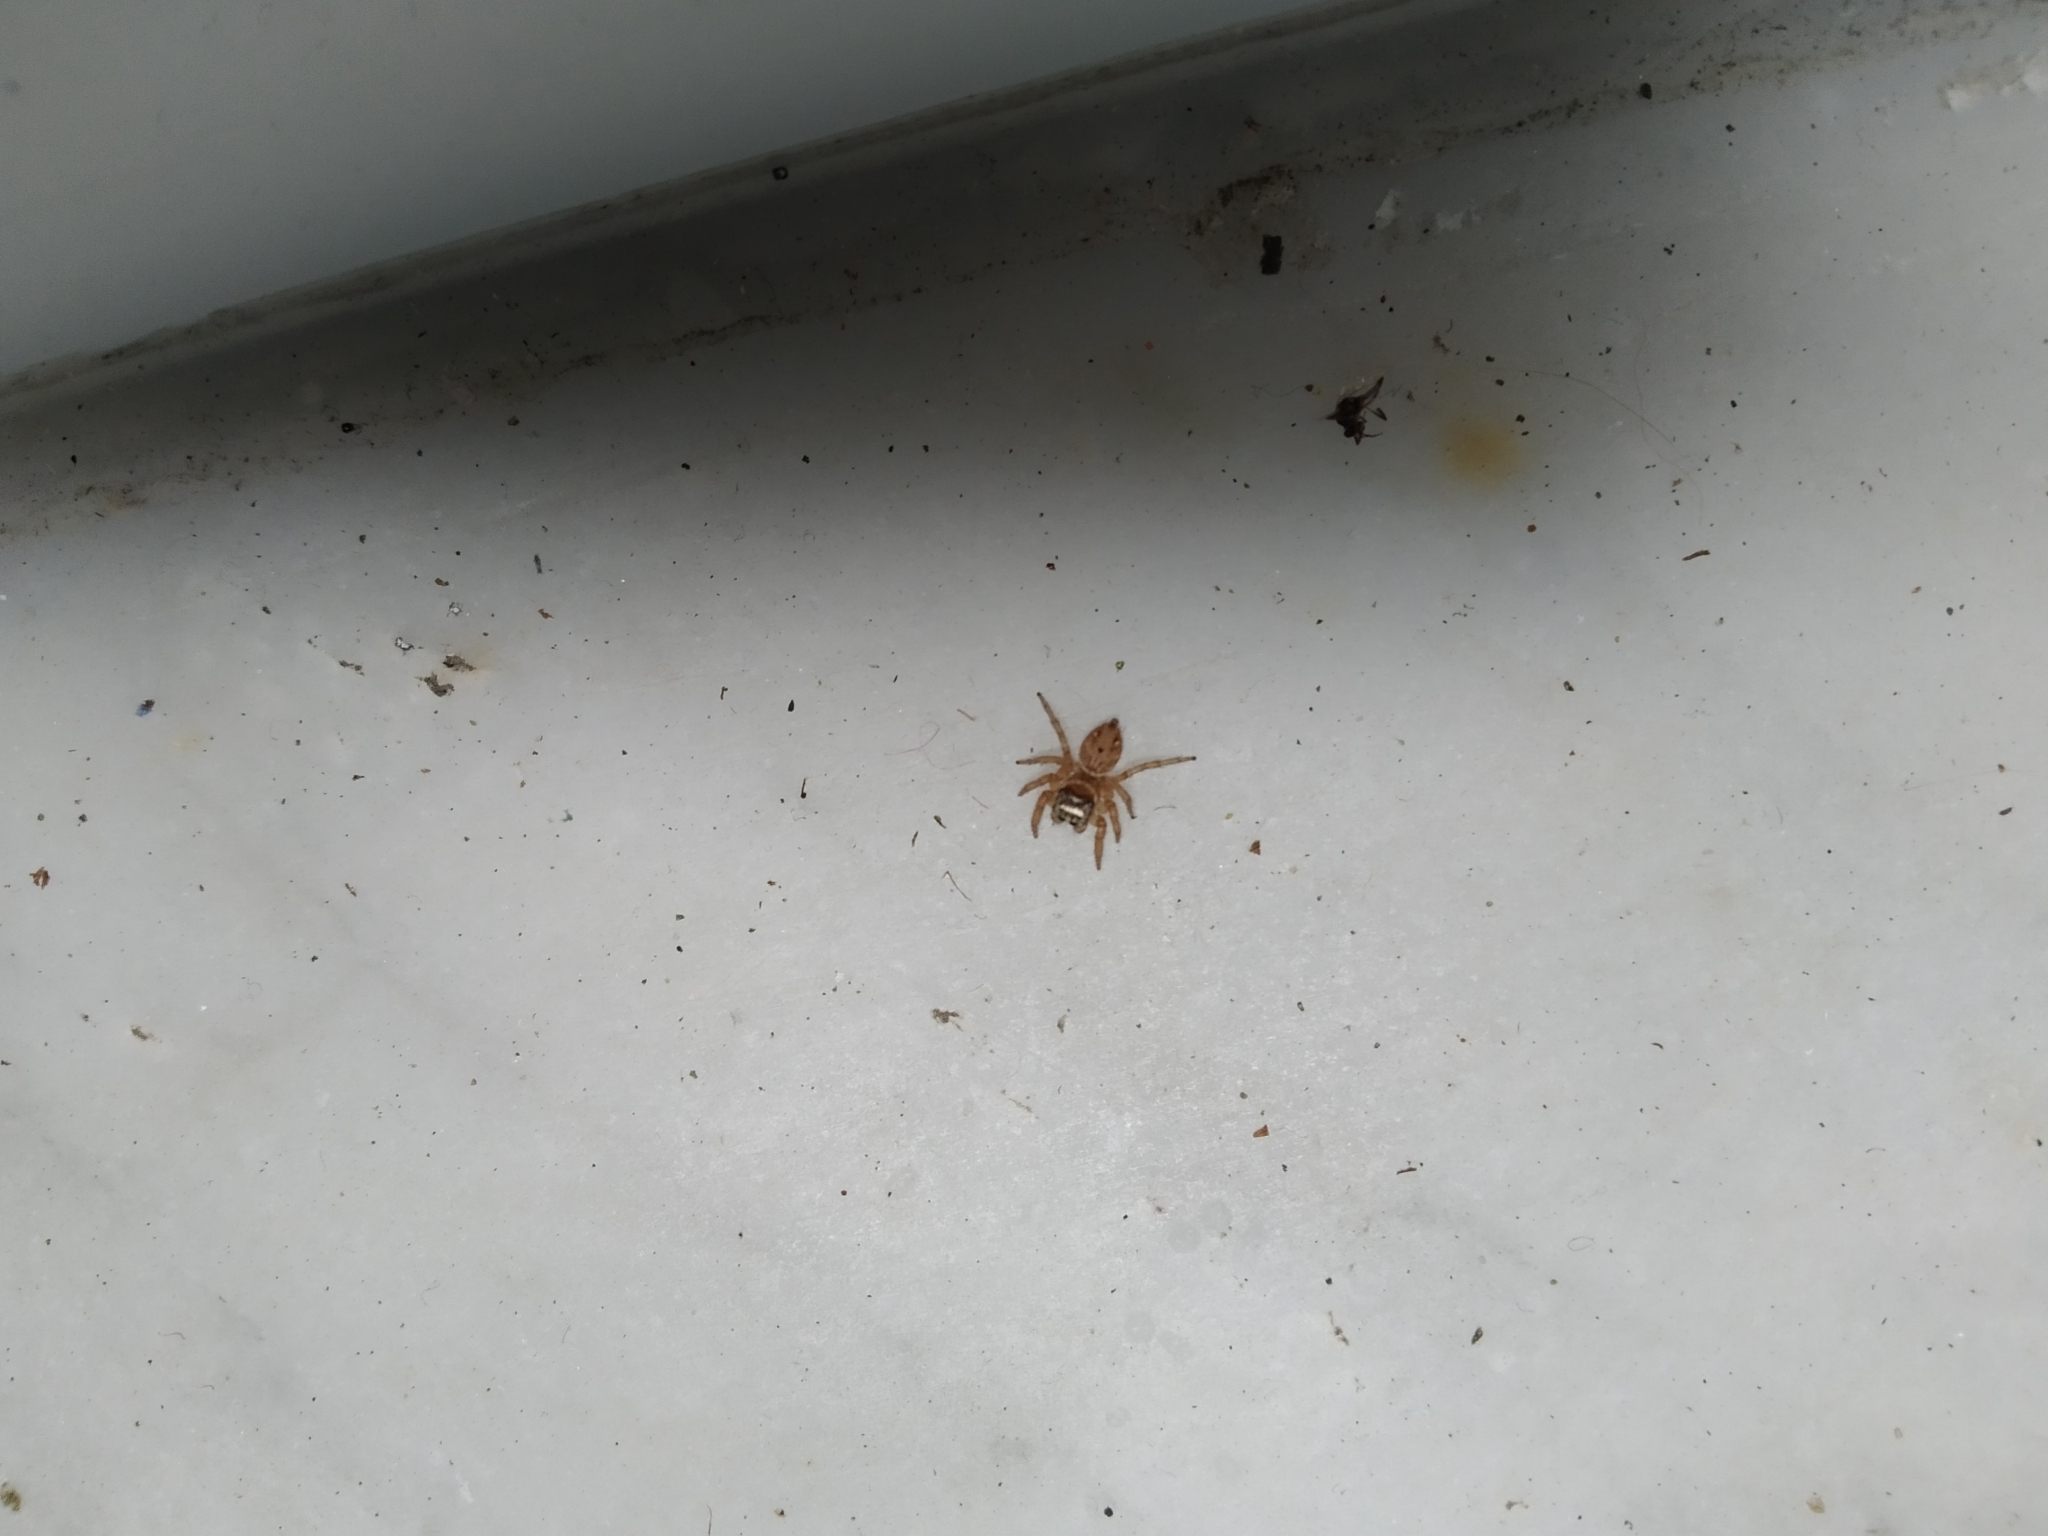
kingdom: Animalia
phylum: Arthropoda
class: Arachnida
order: Araneae
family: Salticidae
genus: Evarcha
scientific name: Evarcha jucunda
